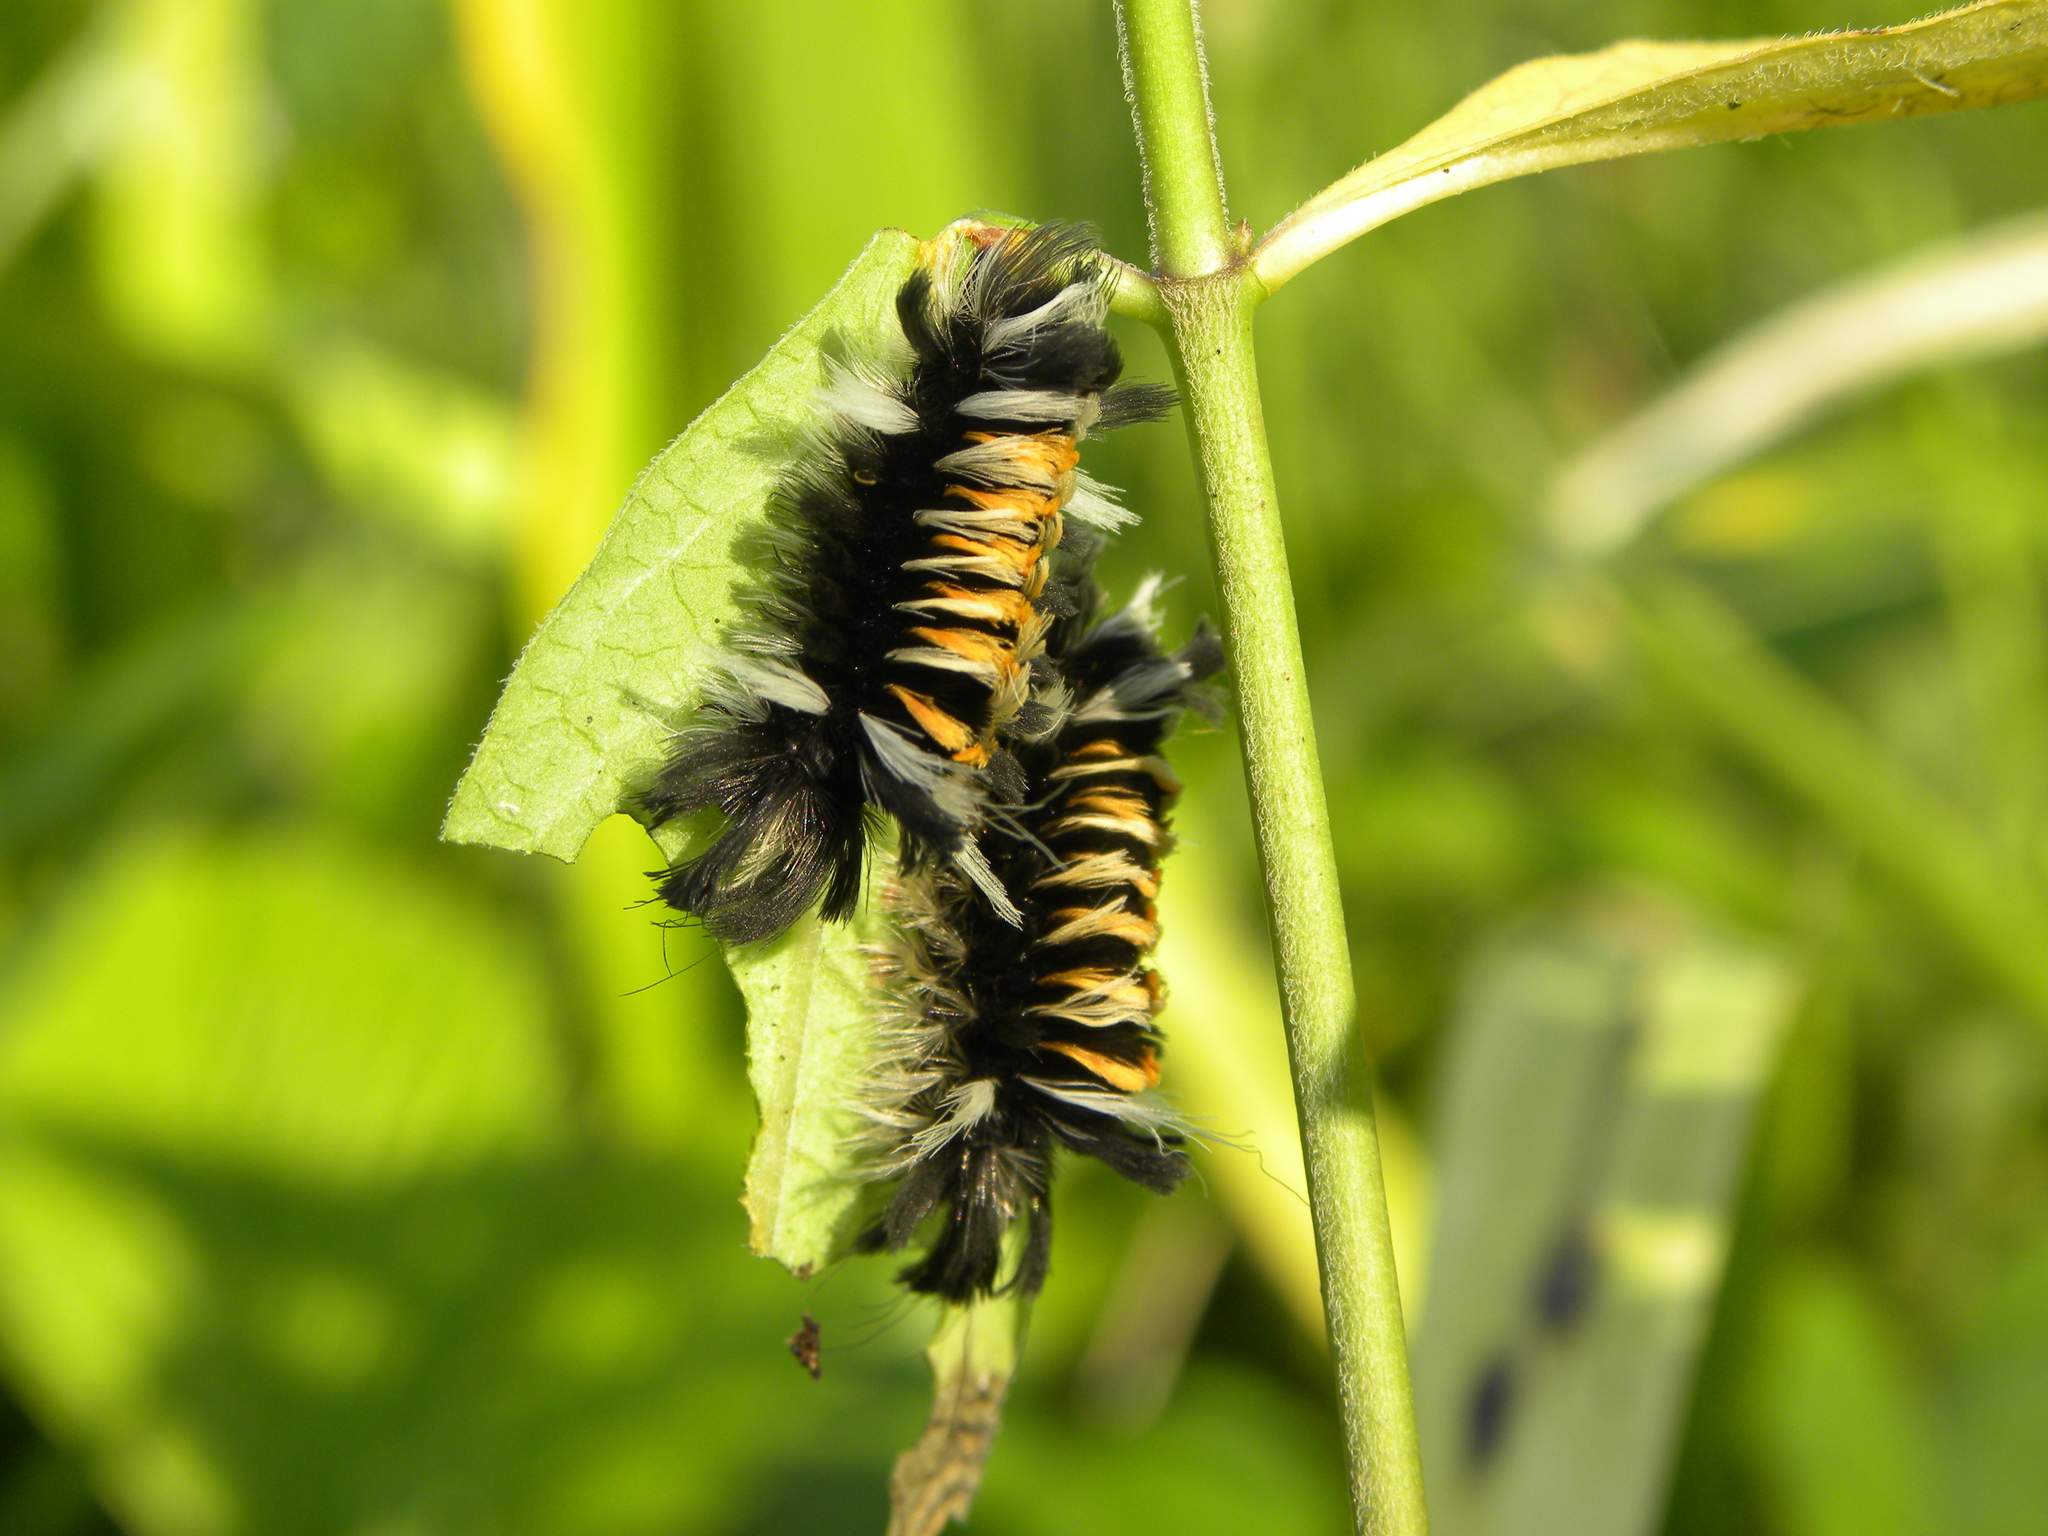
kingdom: Animalia
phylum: Arthropoda
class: Insecta
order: Lepidoptera
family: Erebidae
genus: Euchaetes
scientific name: Euchaetes egle
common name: Milkweed tussock moth
